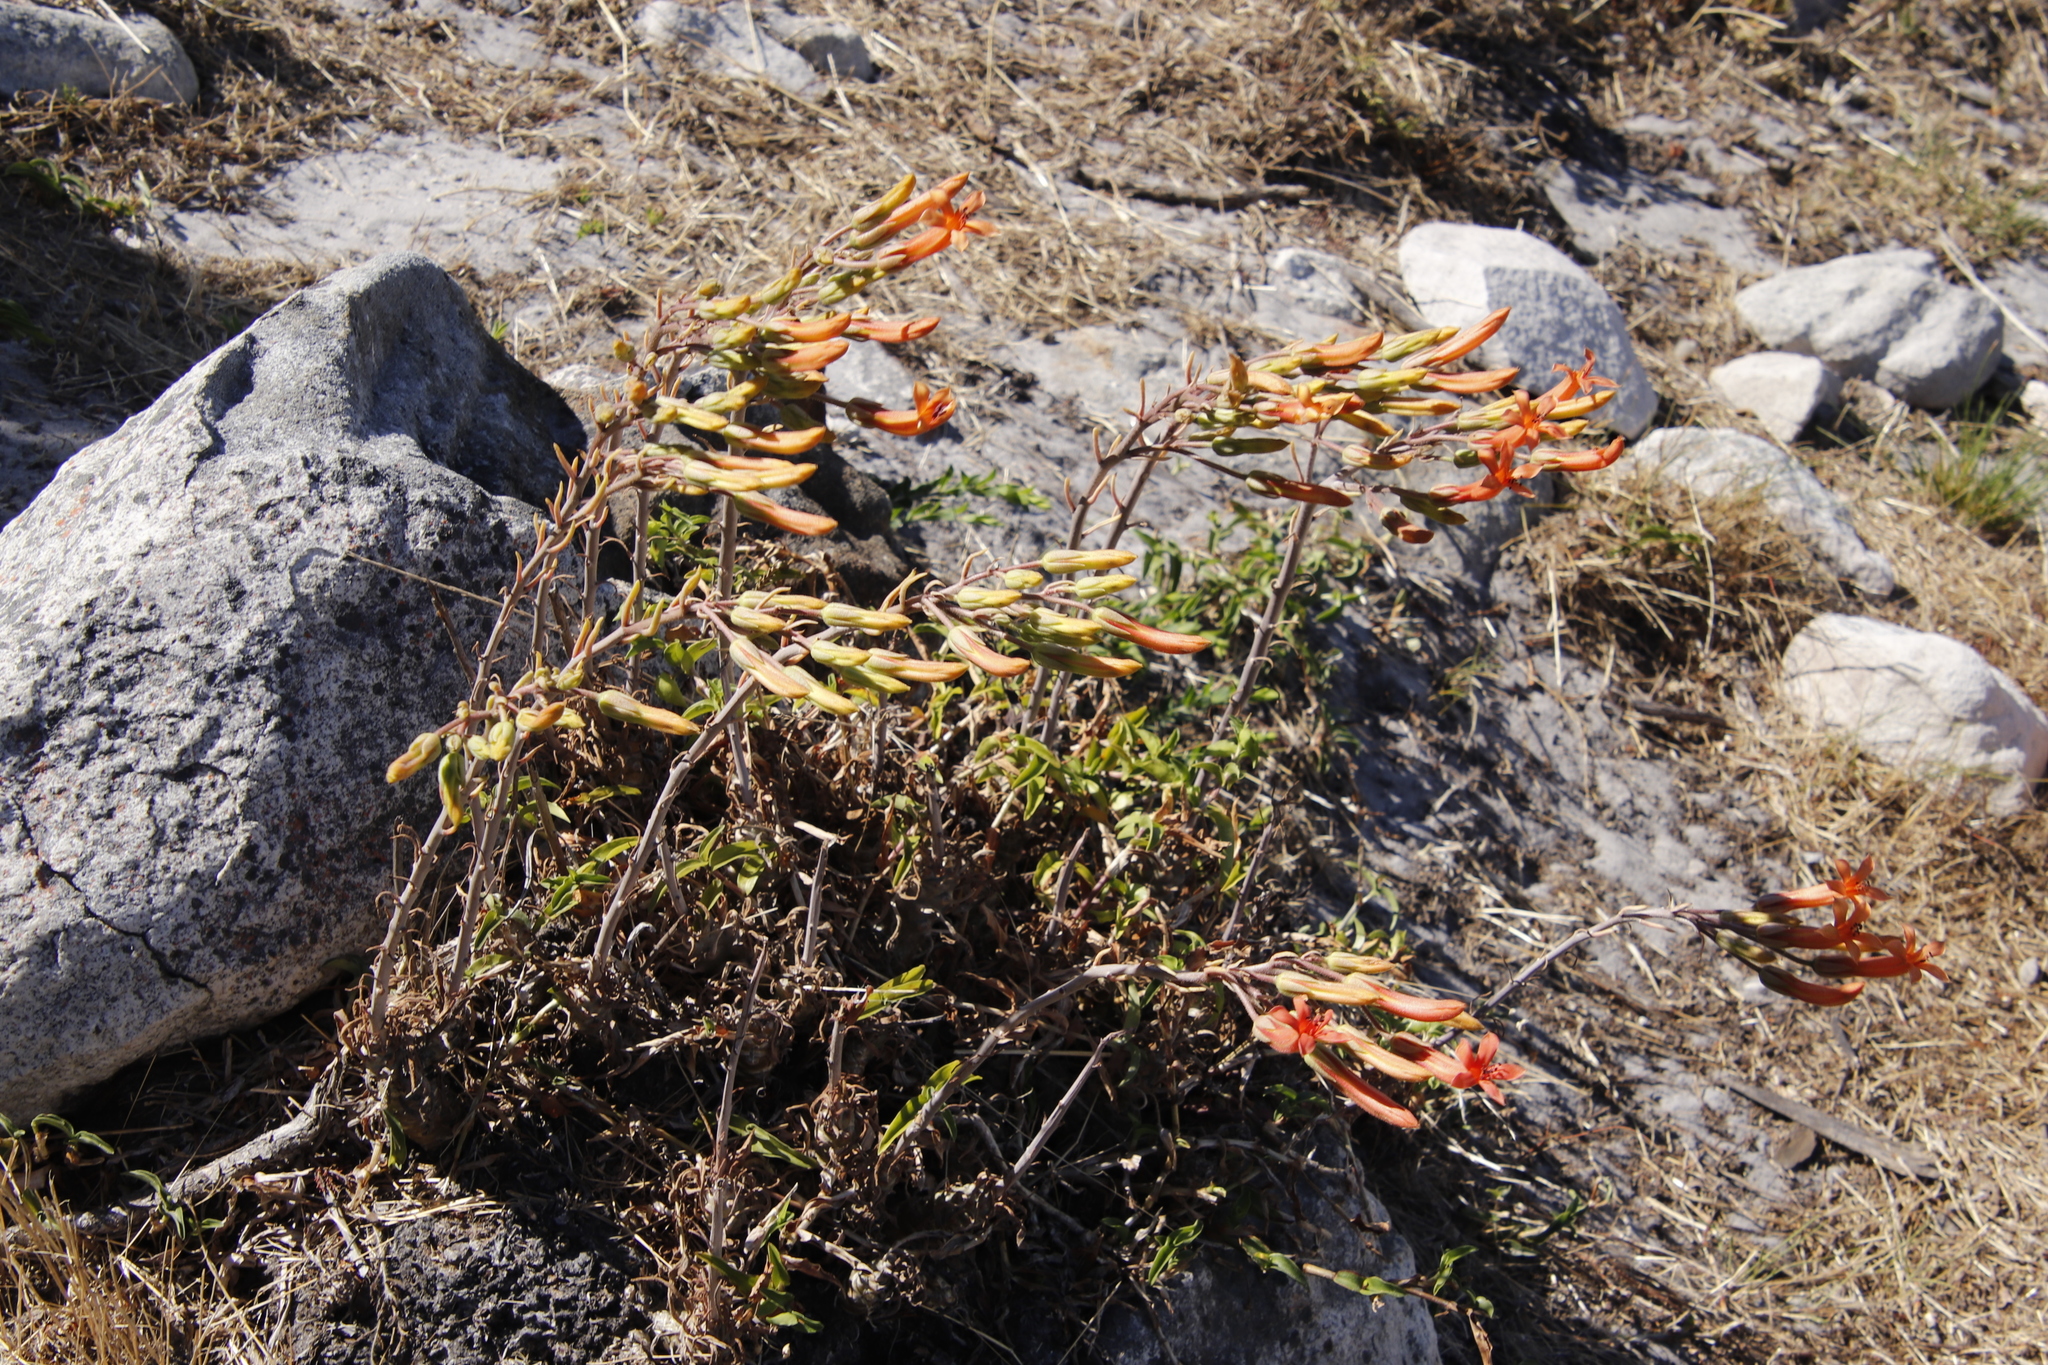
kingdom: Plantae
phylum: Tracheophyta
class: Magnoliopsida
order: Saxifragales
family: Crassulaceae
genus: Tylecodon
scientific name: Tylecodon grandiflorus
